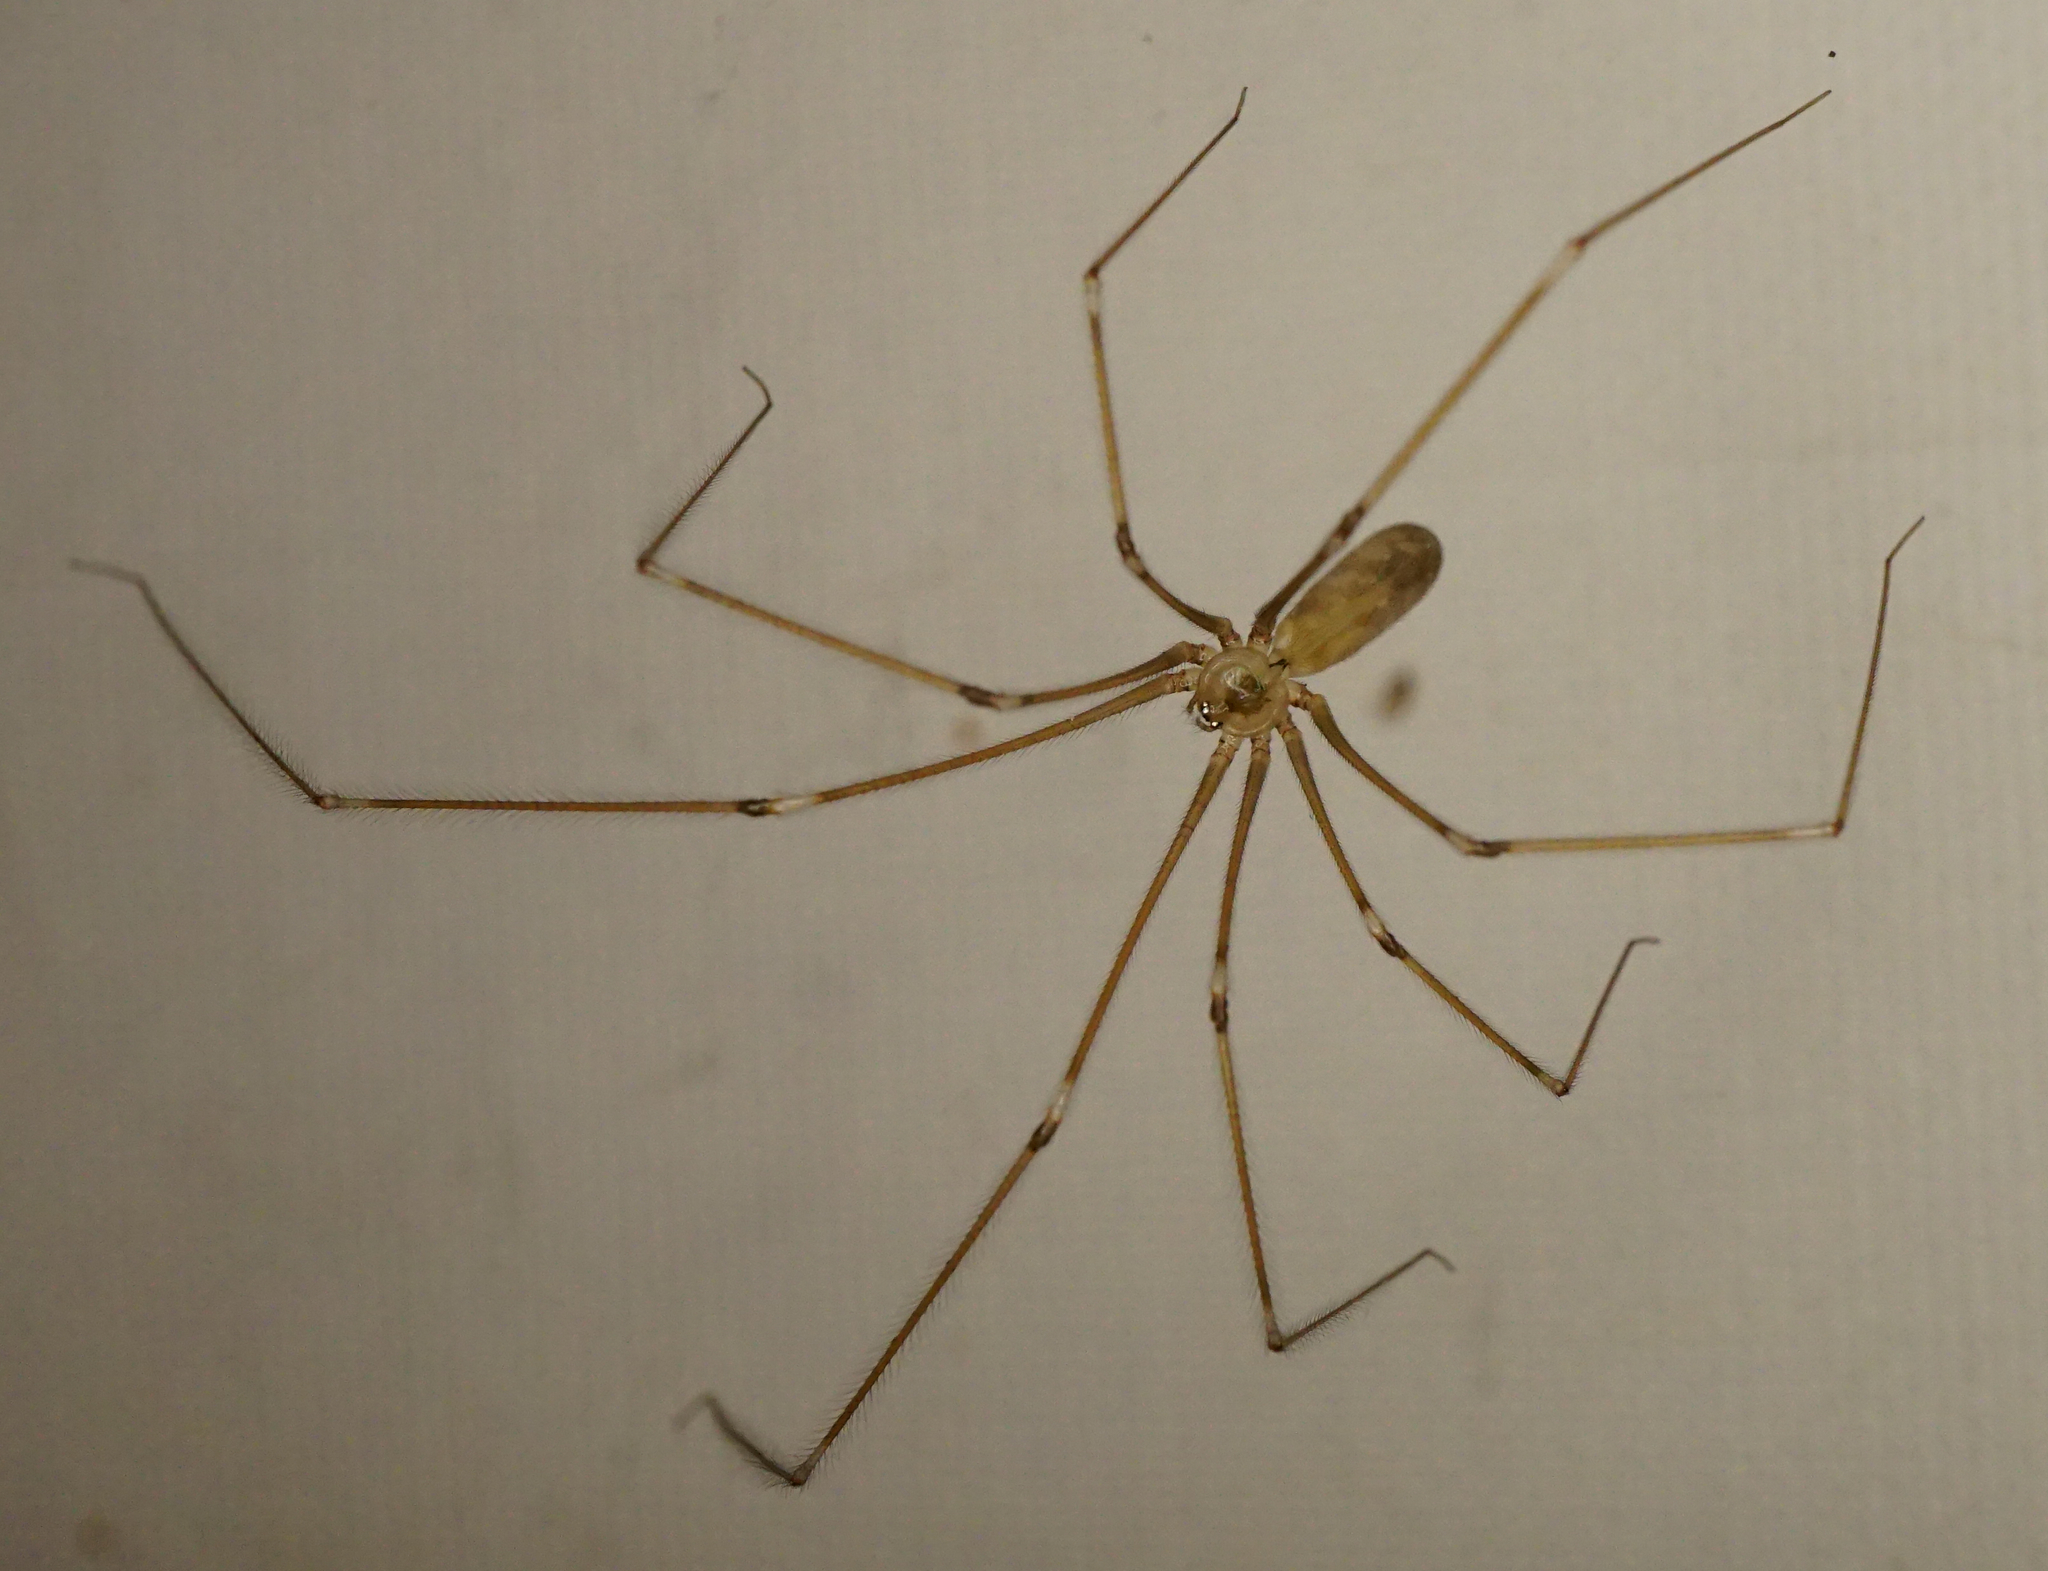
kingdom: Animalia
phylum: Arthropoda
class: Arachnida
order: Araneae
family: Pholcidae
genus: Pholcus
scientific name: Pholcus phalangioides
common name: Longbodied cellar spider
